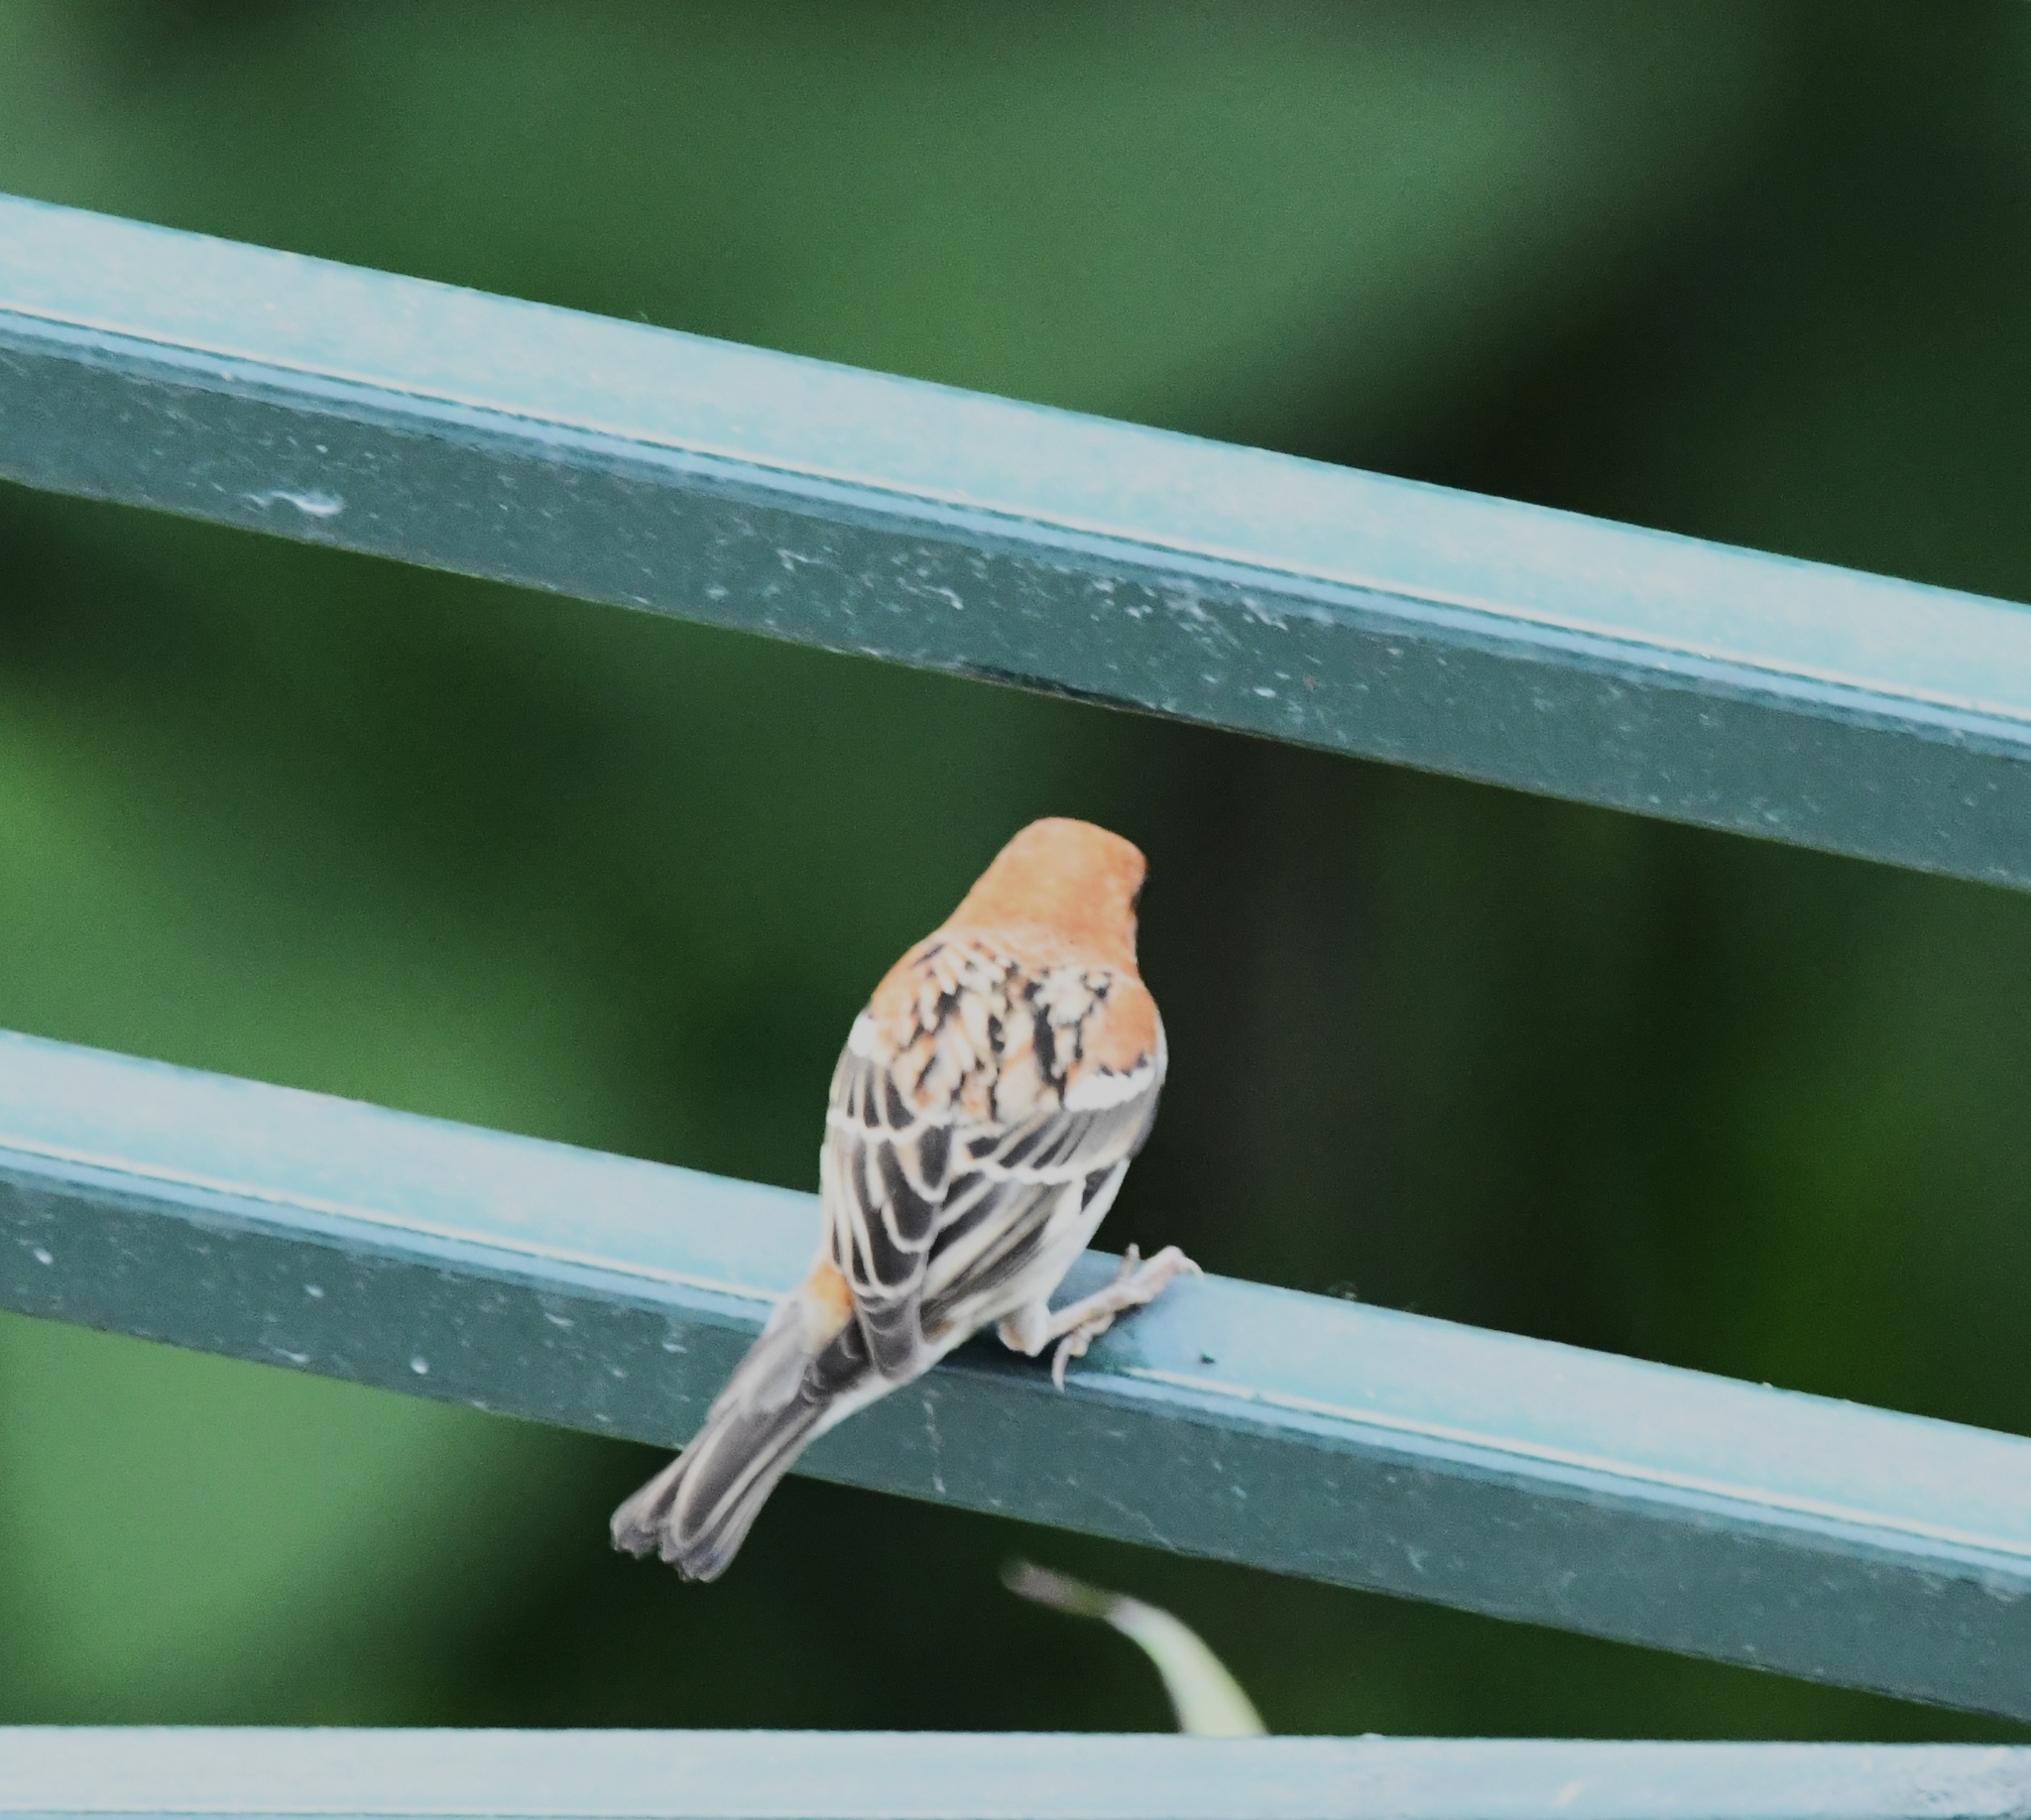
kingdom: Animalia
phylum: Chordata
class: Aves
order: Passeriformes
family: Passeridae
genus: Passer
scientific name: Passer cinnamomeus
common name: Russet sparrow
